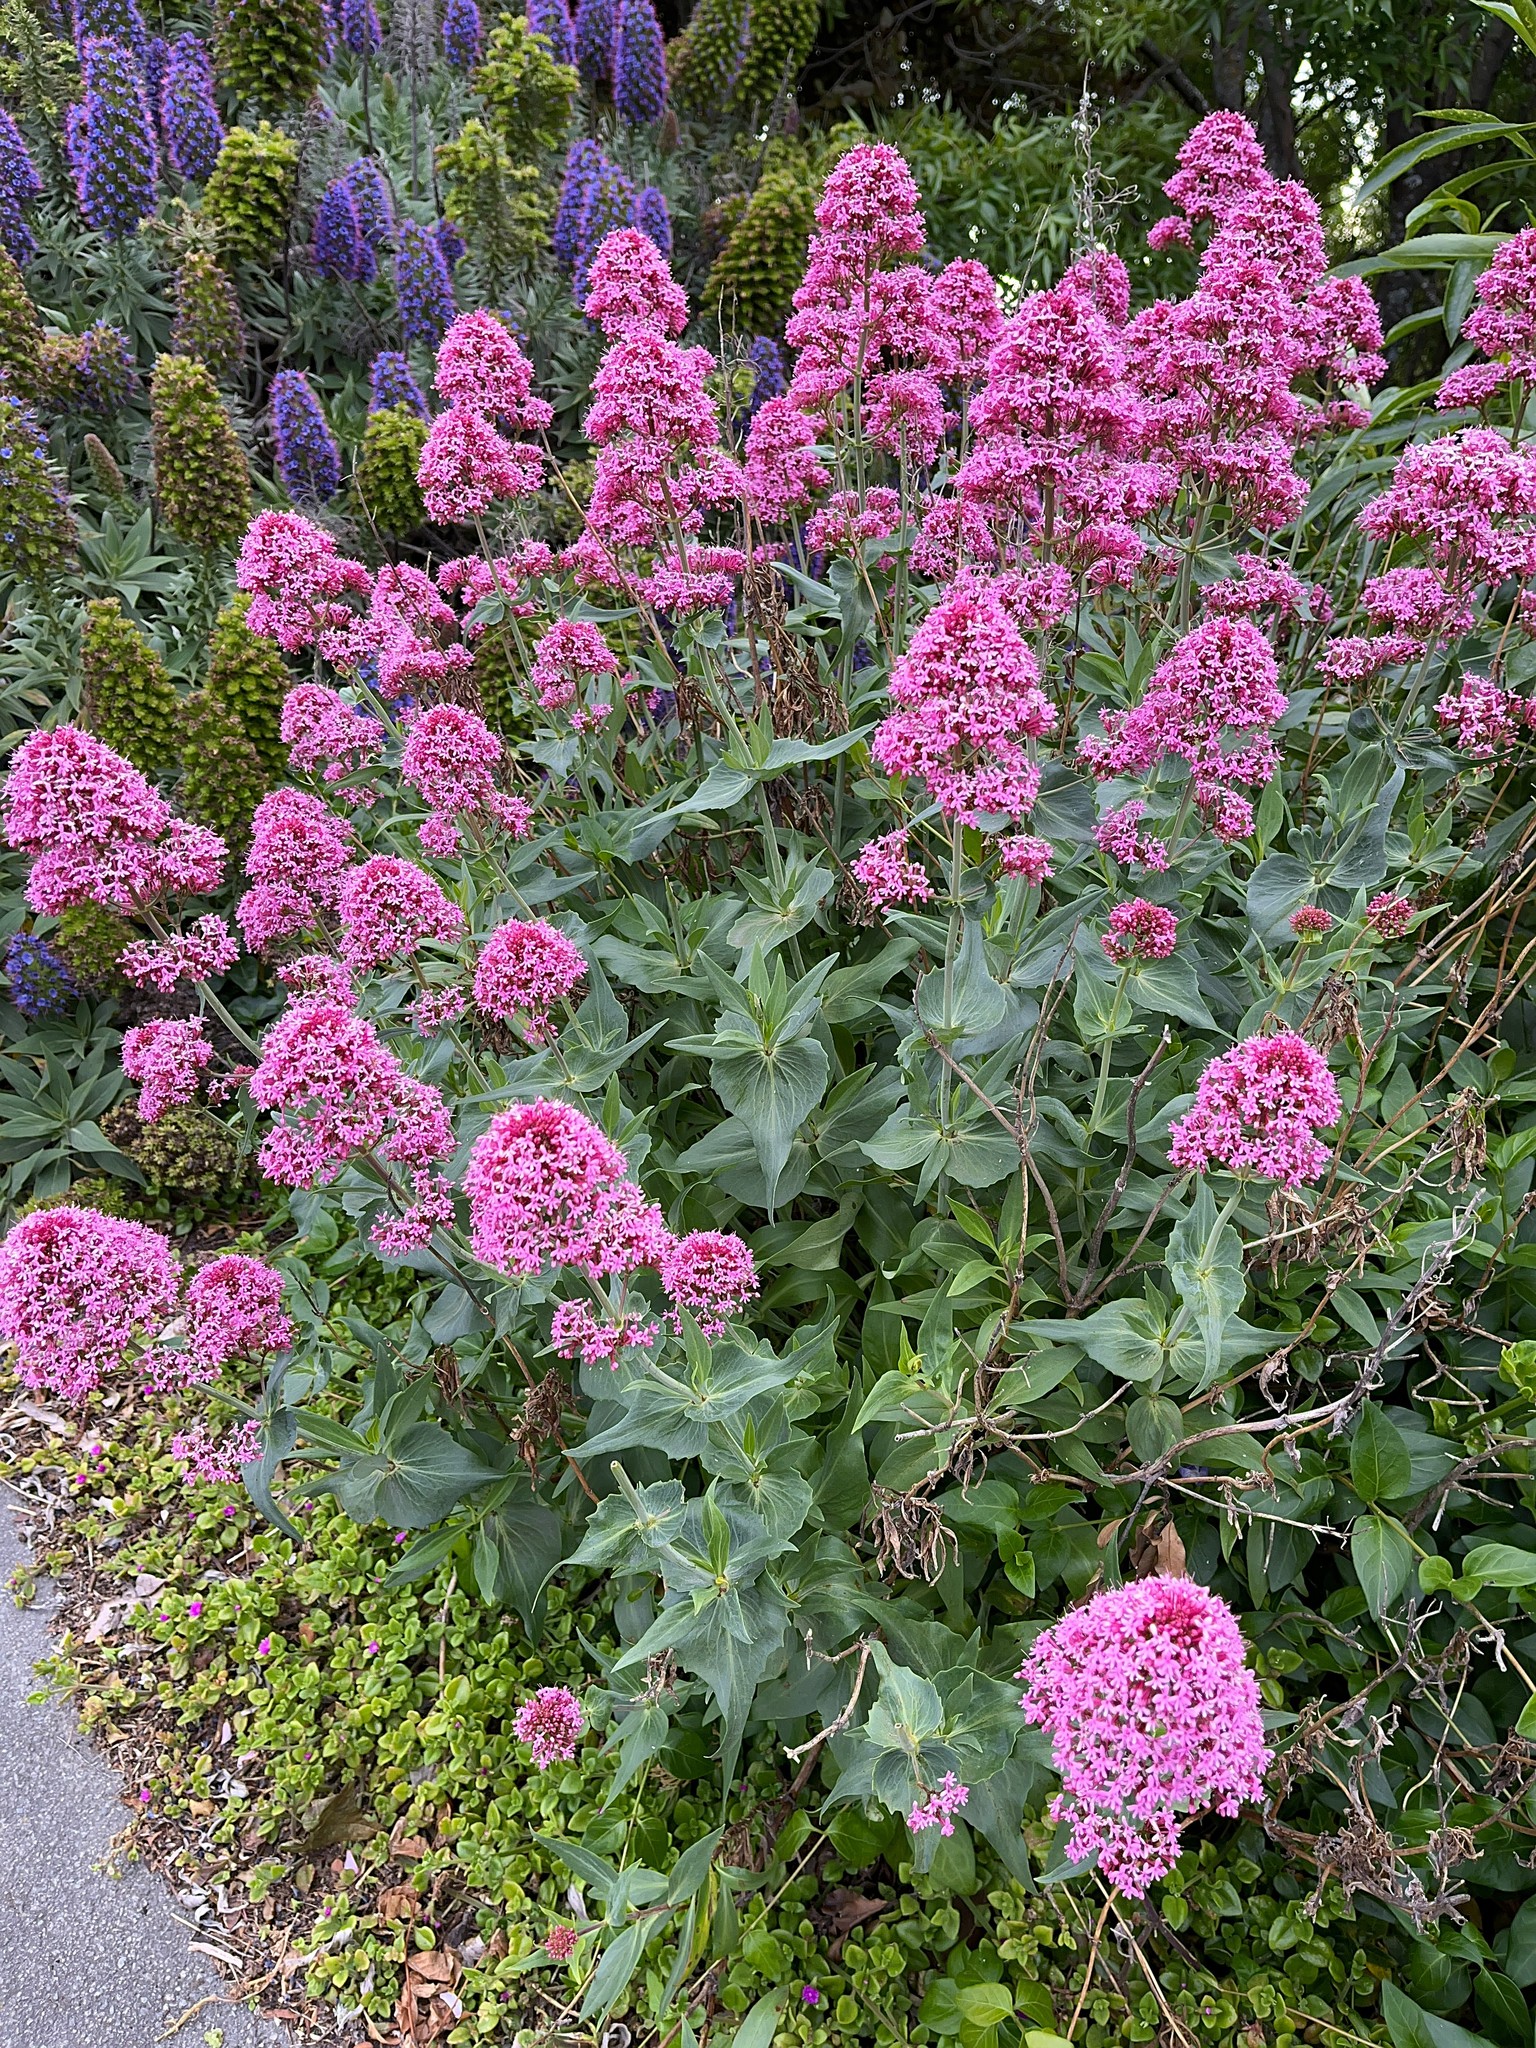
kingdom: Plantae
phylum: Tracheophyta
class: Magnoliopsida
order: Dipsacales
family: Caprifoliaceae
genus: Centranthus
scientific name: Centranthus ruber
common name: Red valerian
